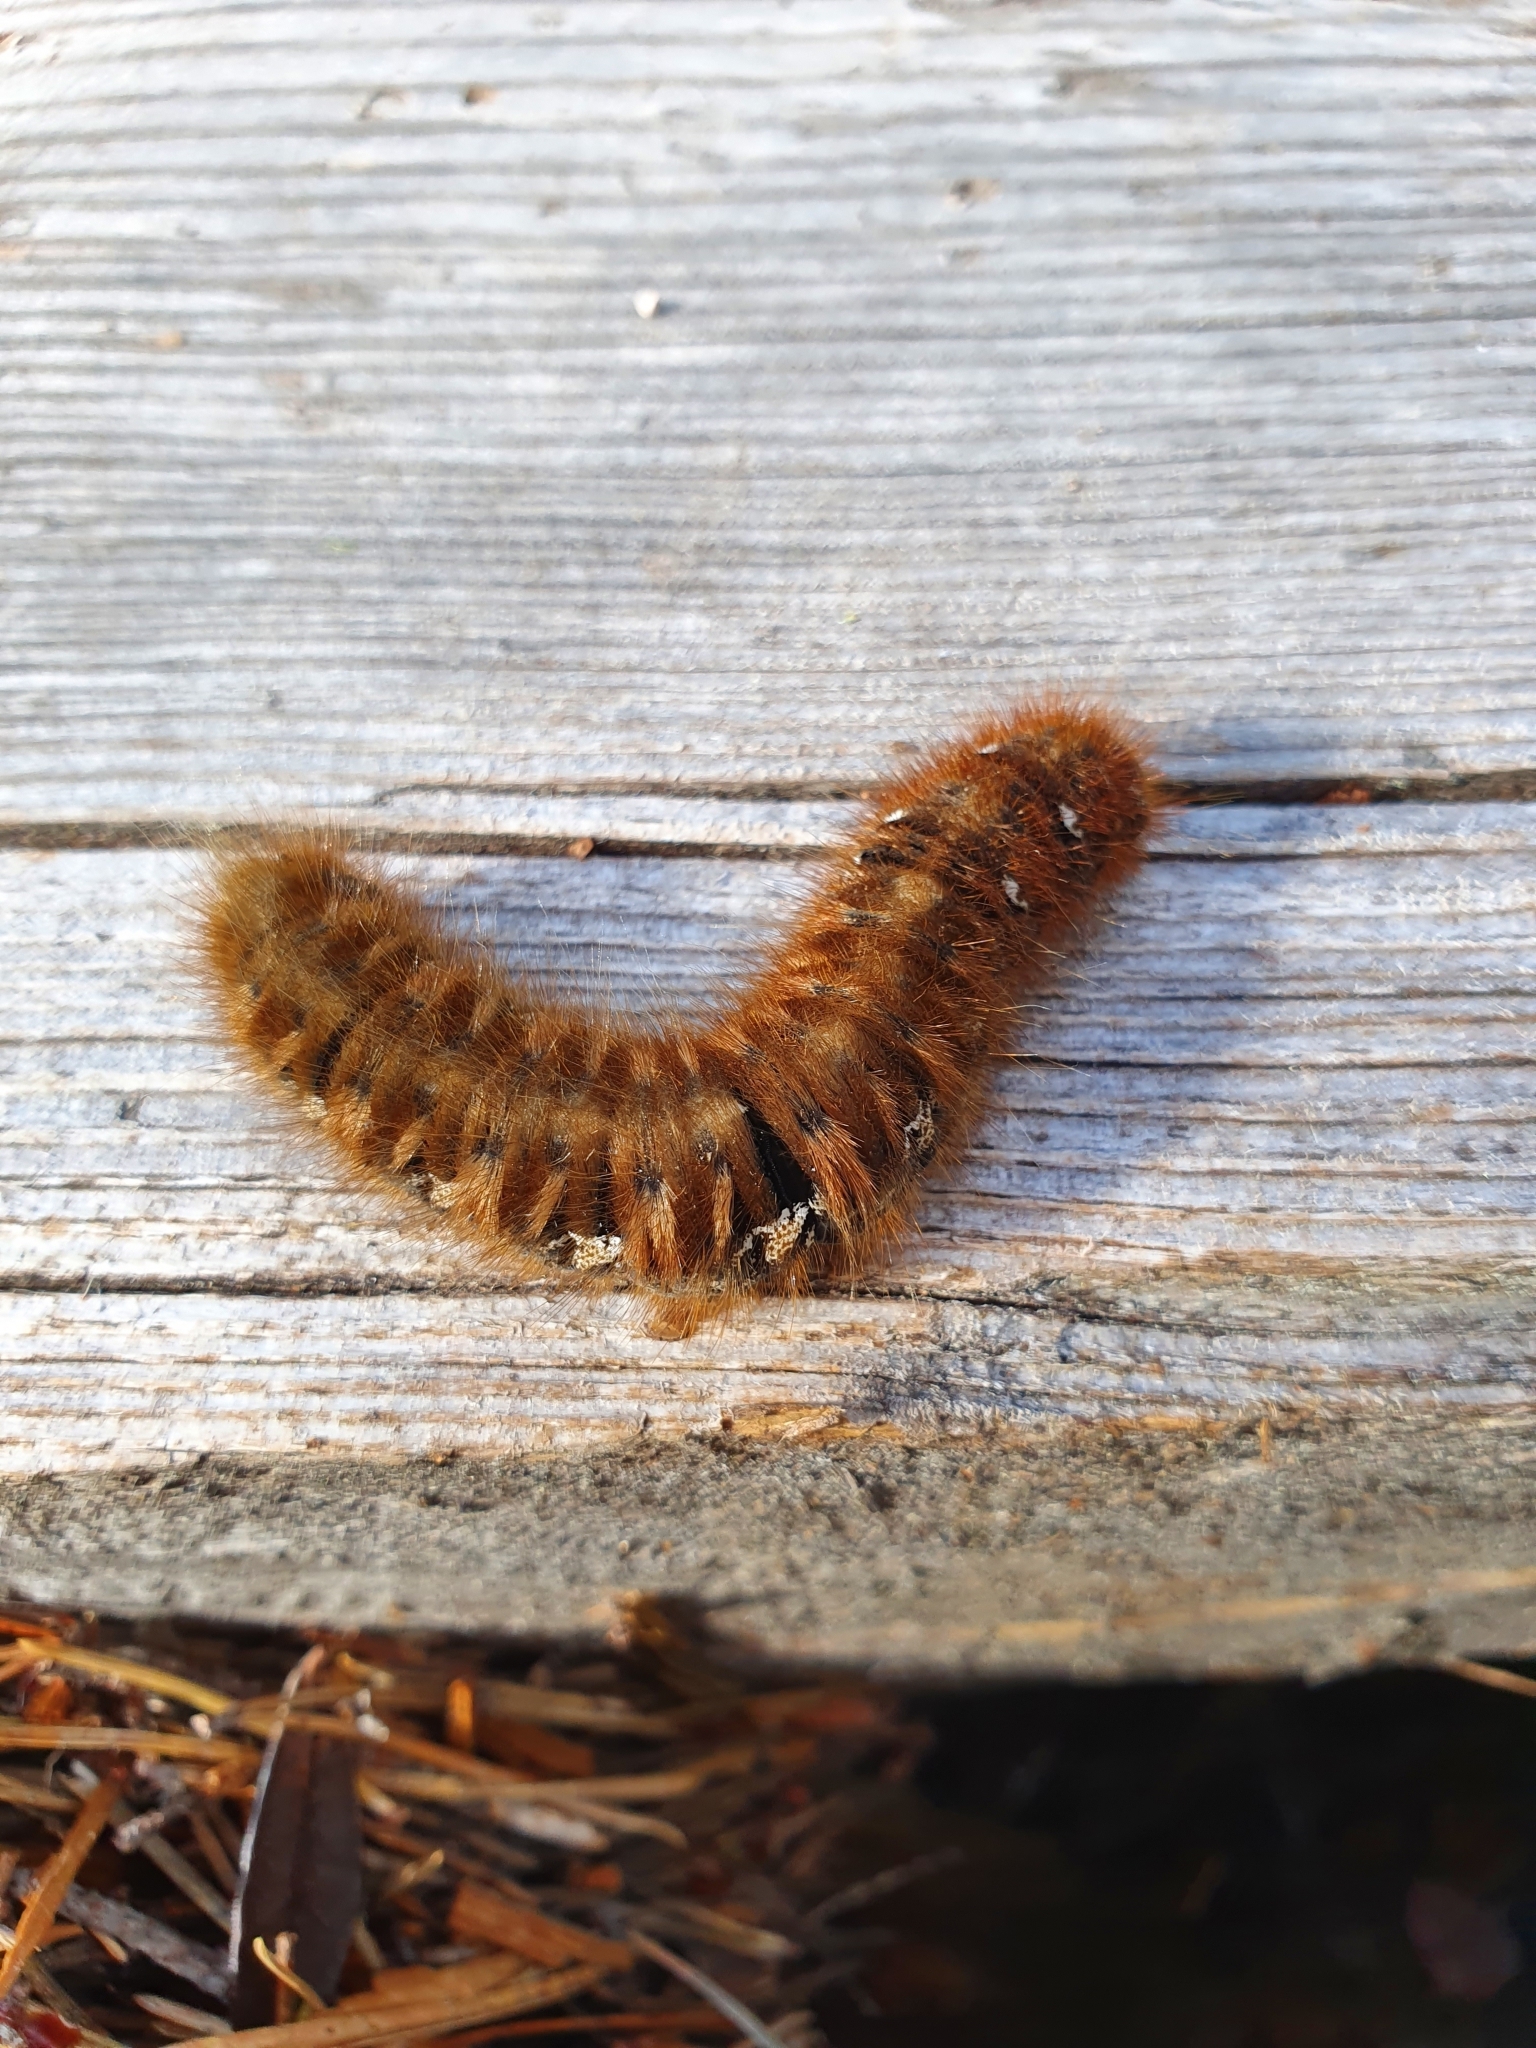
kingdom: Animalia
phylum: Arthropoda
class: Insecta
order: Lepidoptera
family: Lasiocampidae
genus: Lasiocampa
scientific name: Lasiocampa quercus
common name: Oak eggar
